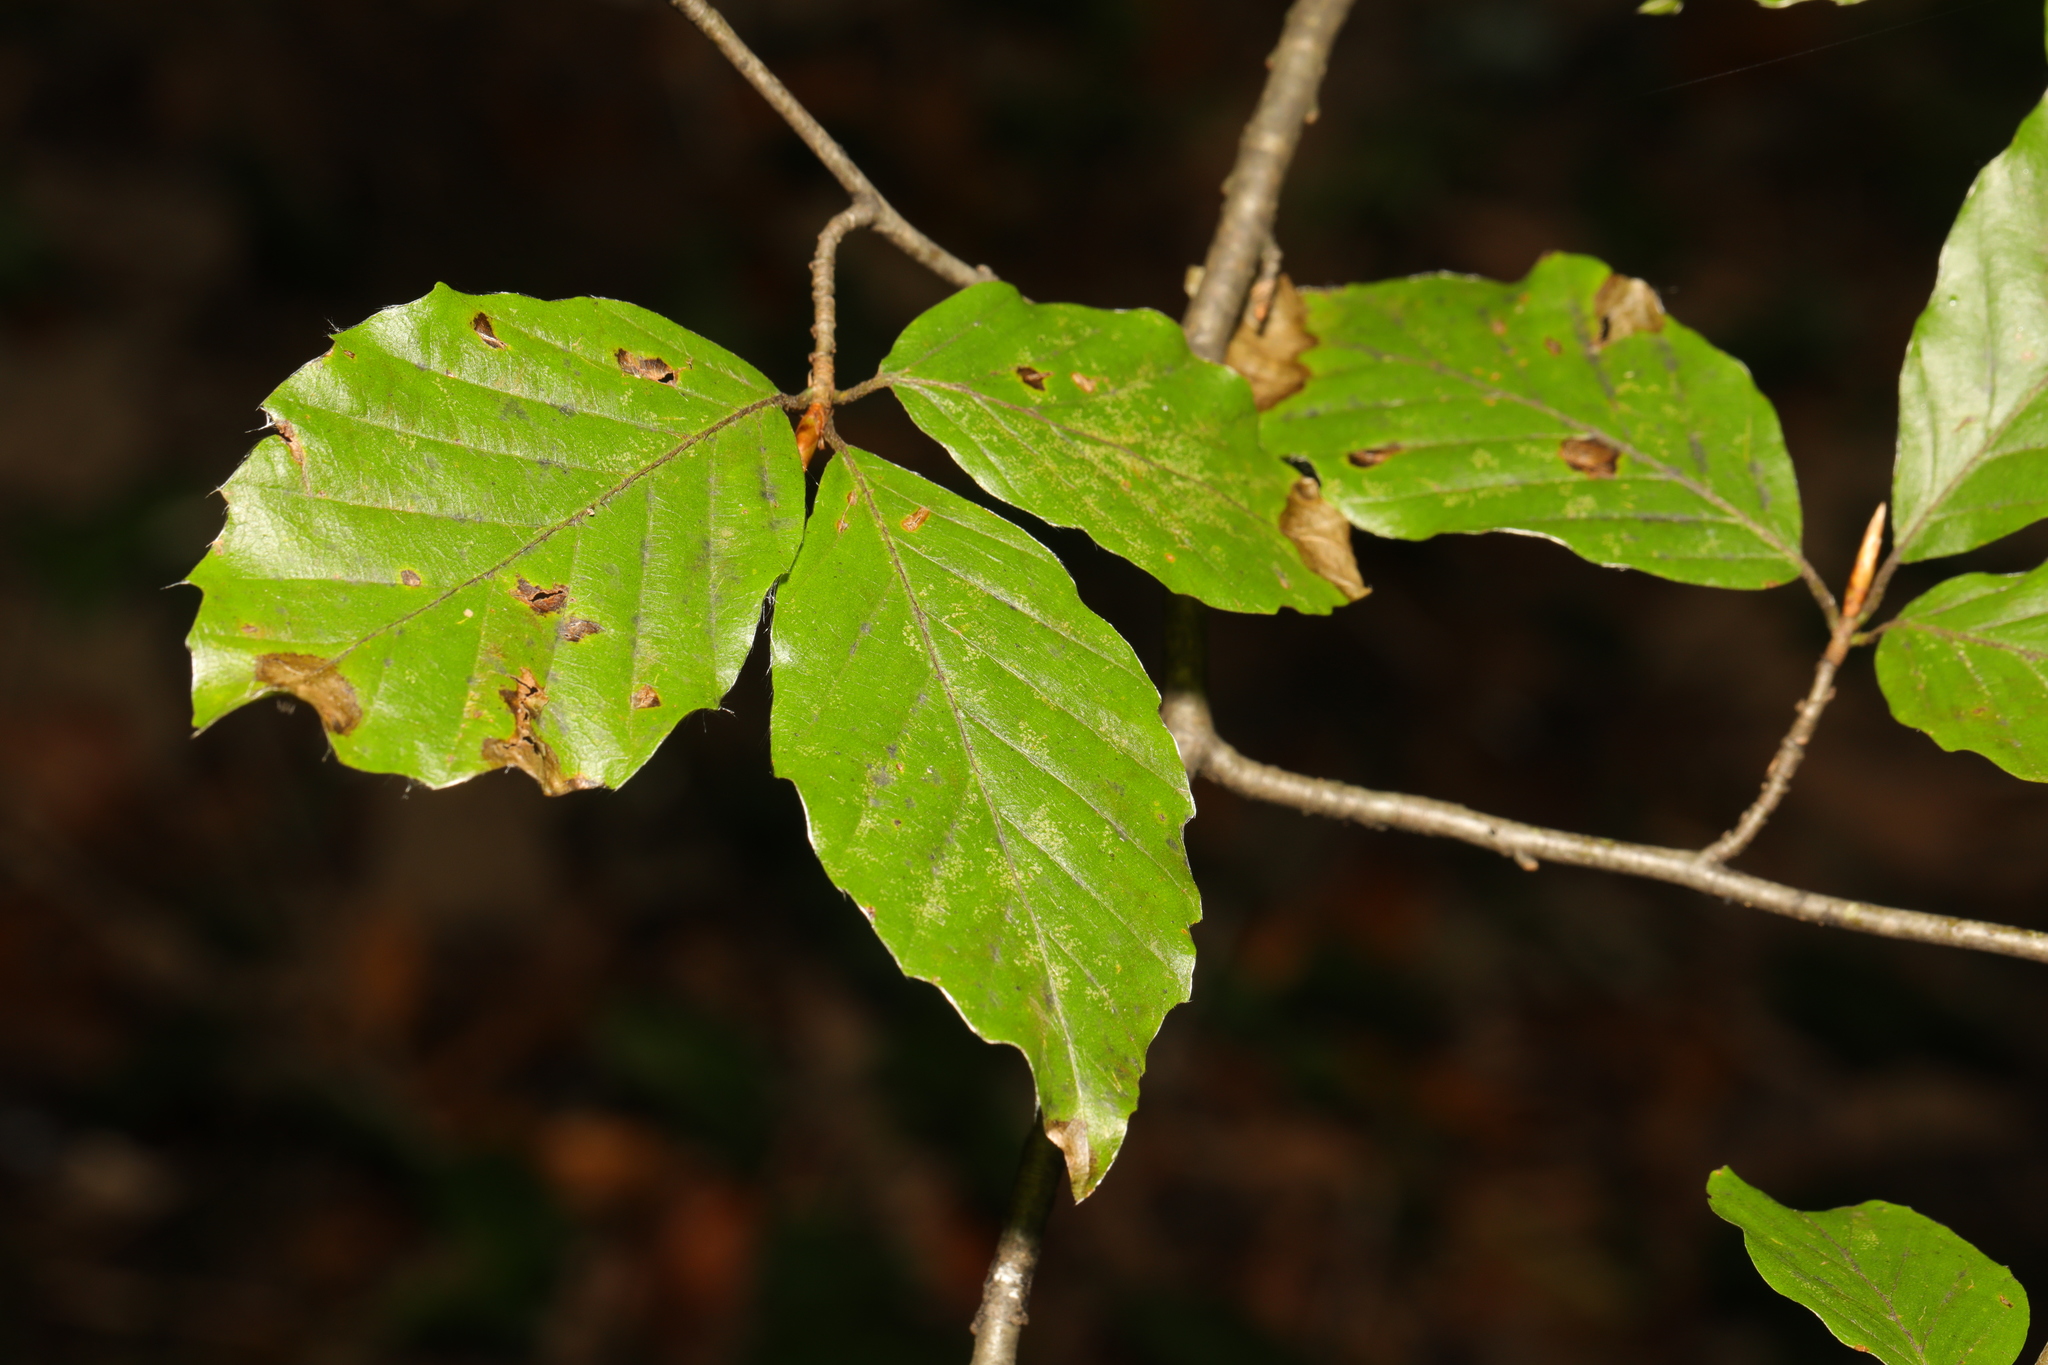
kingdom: Plantae
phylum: Tracheophyta
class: Magnoliopsida
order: Fagales
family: Fagaceae
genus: Fagus
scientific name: Fagus sylvatica
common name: Beech
